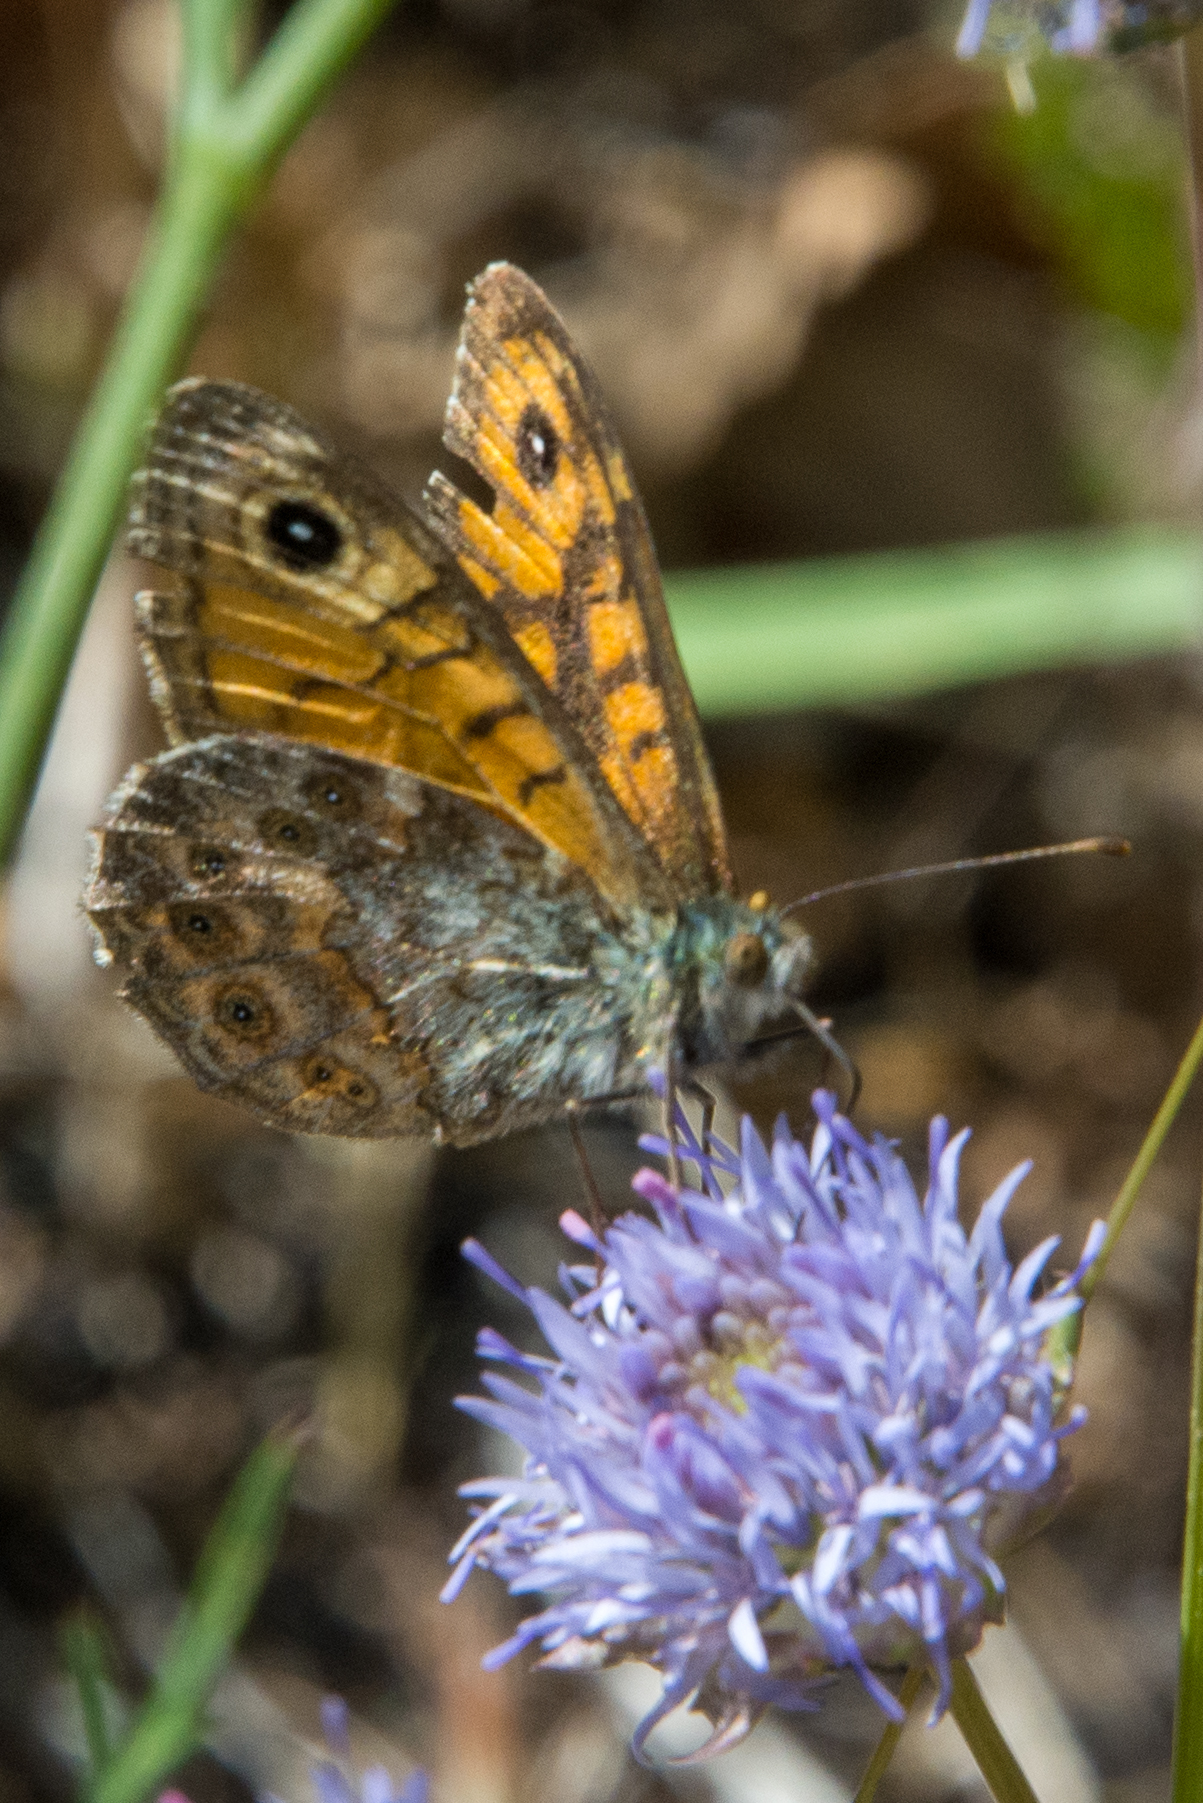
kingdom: Animalia
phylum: Arthropoda
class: Insecta
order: Lepidoptera
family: Nymphalidae
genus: Pararge
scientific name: Pararge Lasiommata megera
